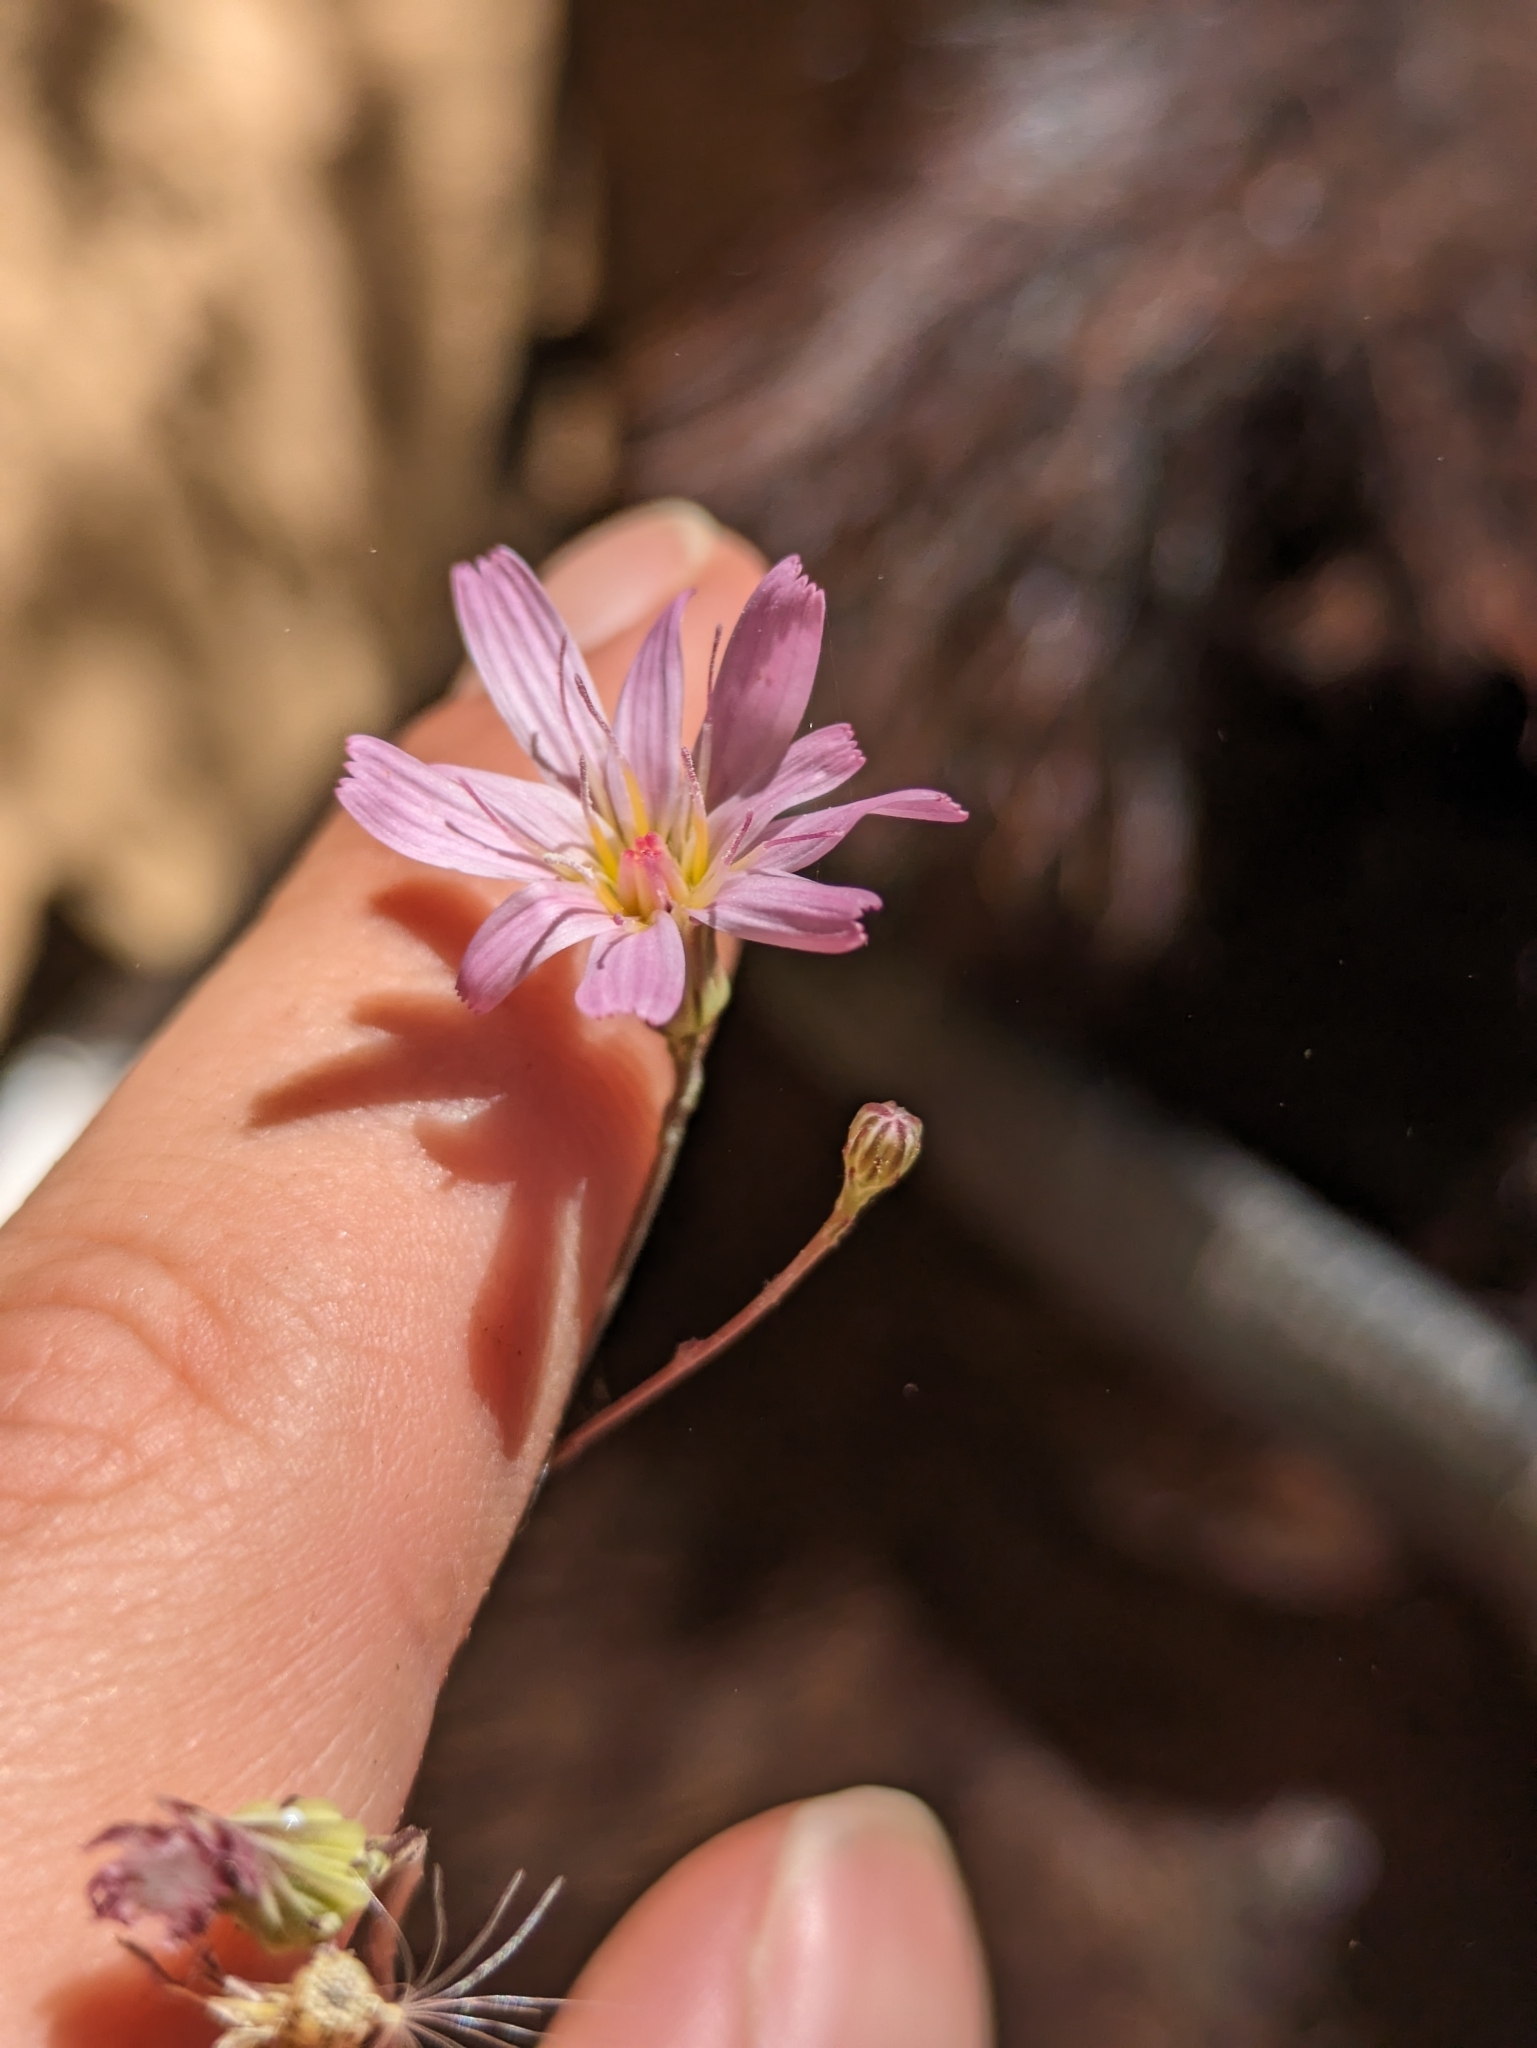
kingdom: Plantae
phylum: Tracheophyta
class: Magnoliopsida
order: Asterales
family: Asteraceae
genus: Malacothrix
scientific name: Malacothrix xanti
